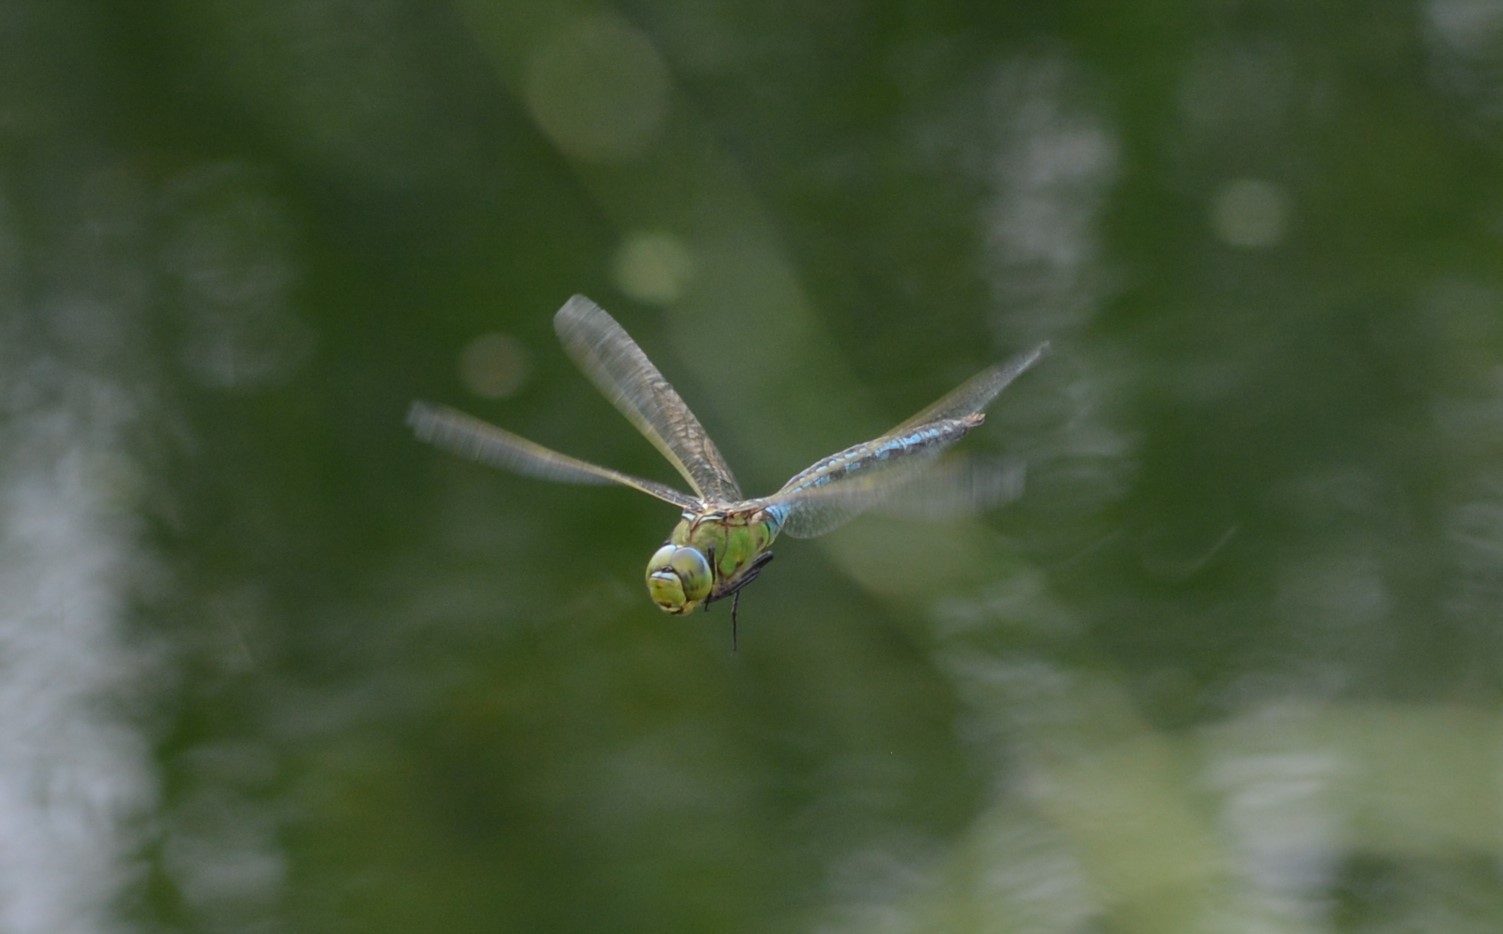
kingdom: Animalia
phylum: Arthropoda
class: Insecta
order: Odonata
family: Aeshnidae
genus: Anax
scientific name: Anax imperator
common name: Emperor dragonfly
